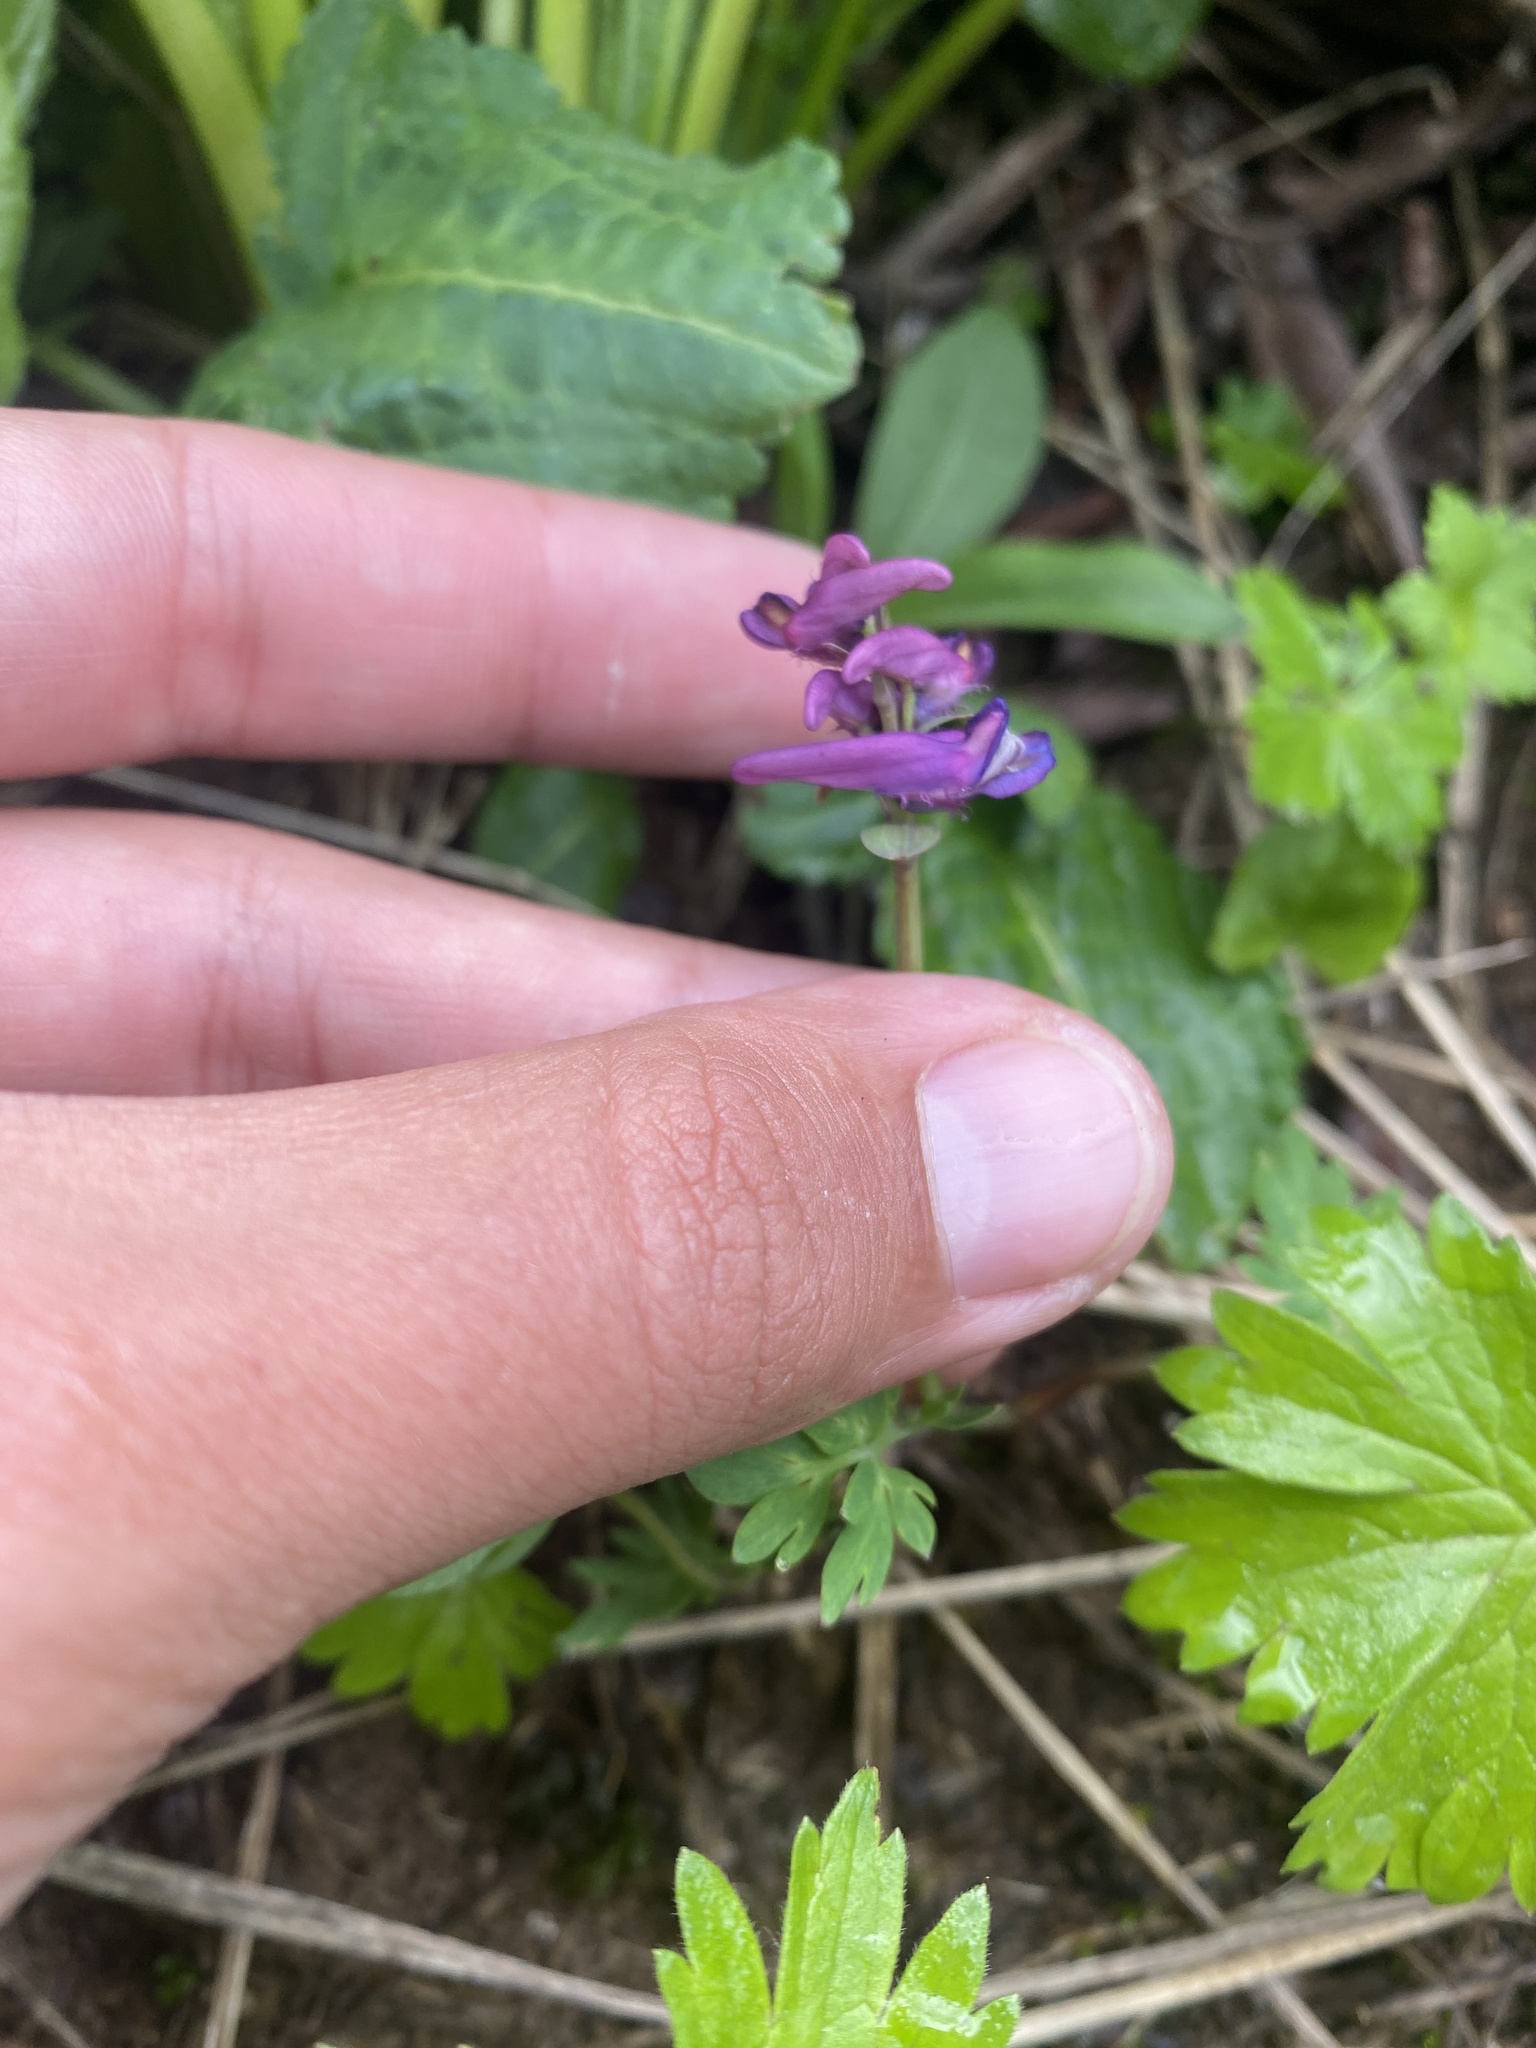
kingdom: Plantae
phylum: Tracheophyta
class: Magnoliopsida
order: Ranunculales
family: Papaveraceae
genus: Corydalis
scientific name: Corydalis conorhiza
